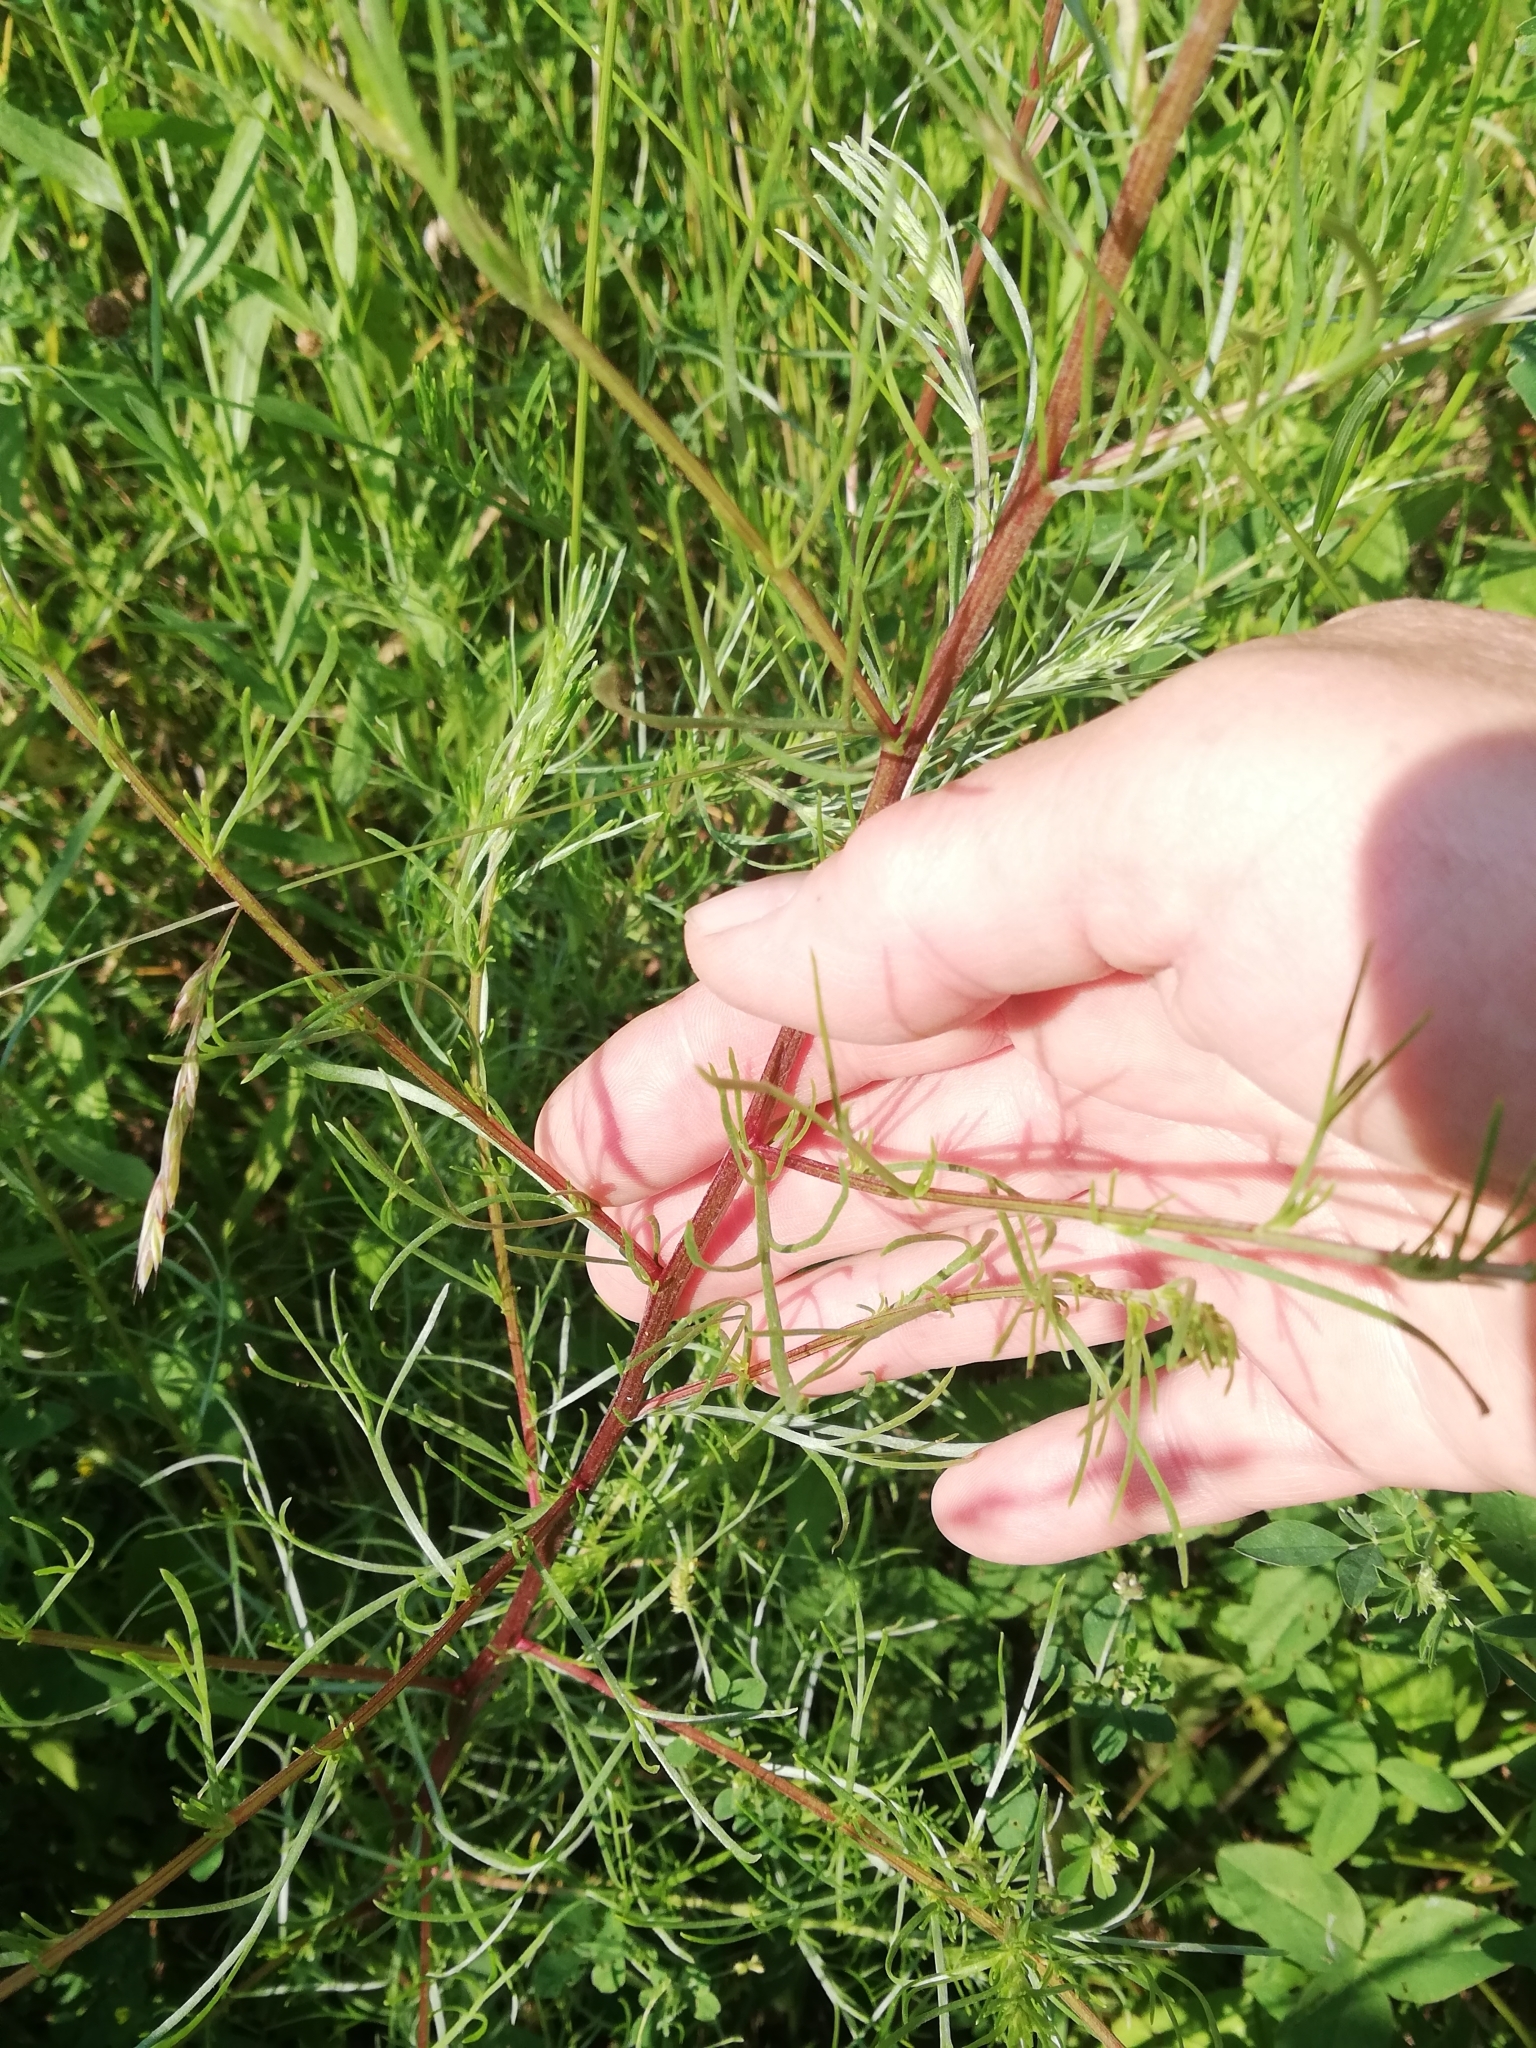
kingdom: Plantae
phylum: Tracheophyta
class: Magnoliopsida
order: Asterales
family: Asteraceae
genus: Artemisia
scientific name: Artemisia campestris
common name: Field wormwood
